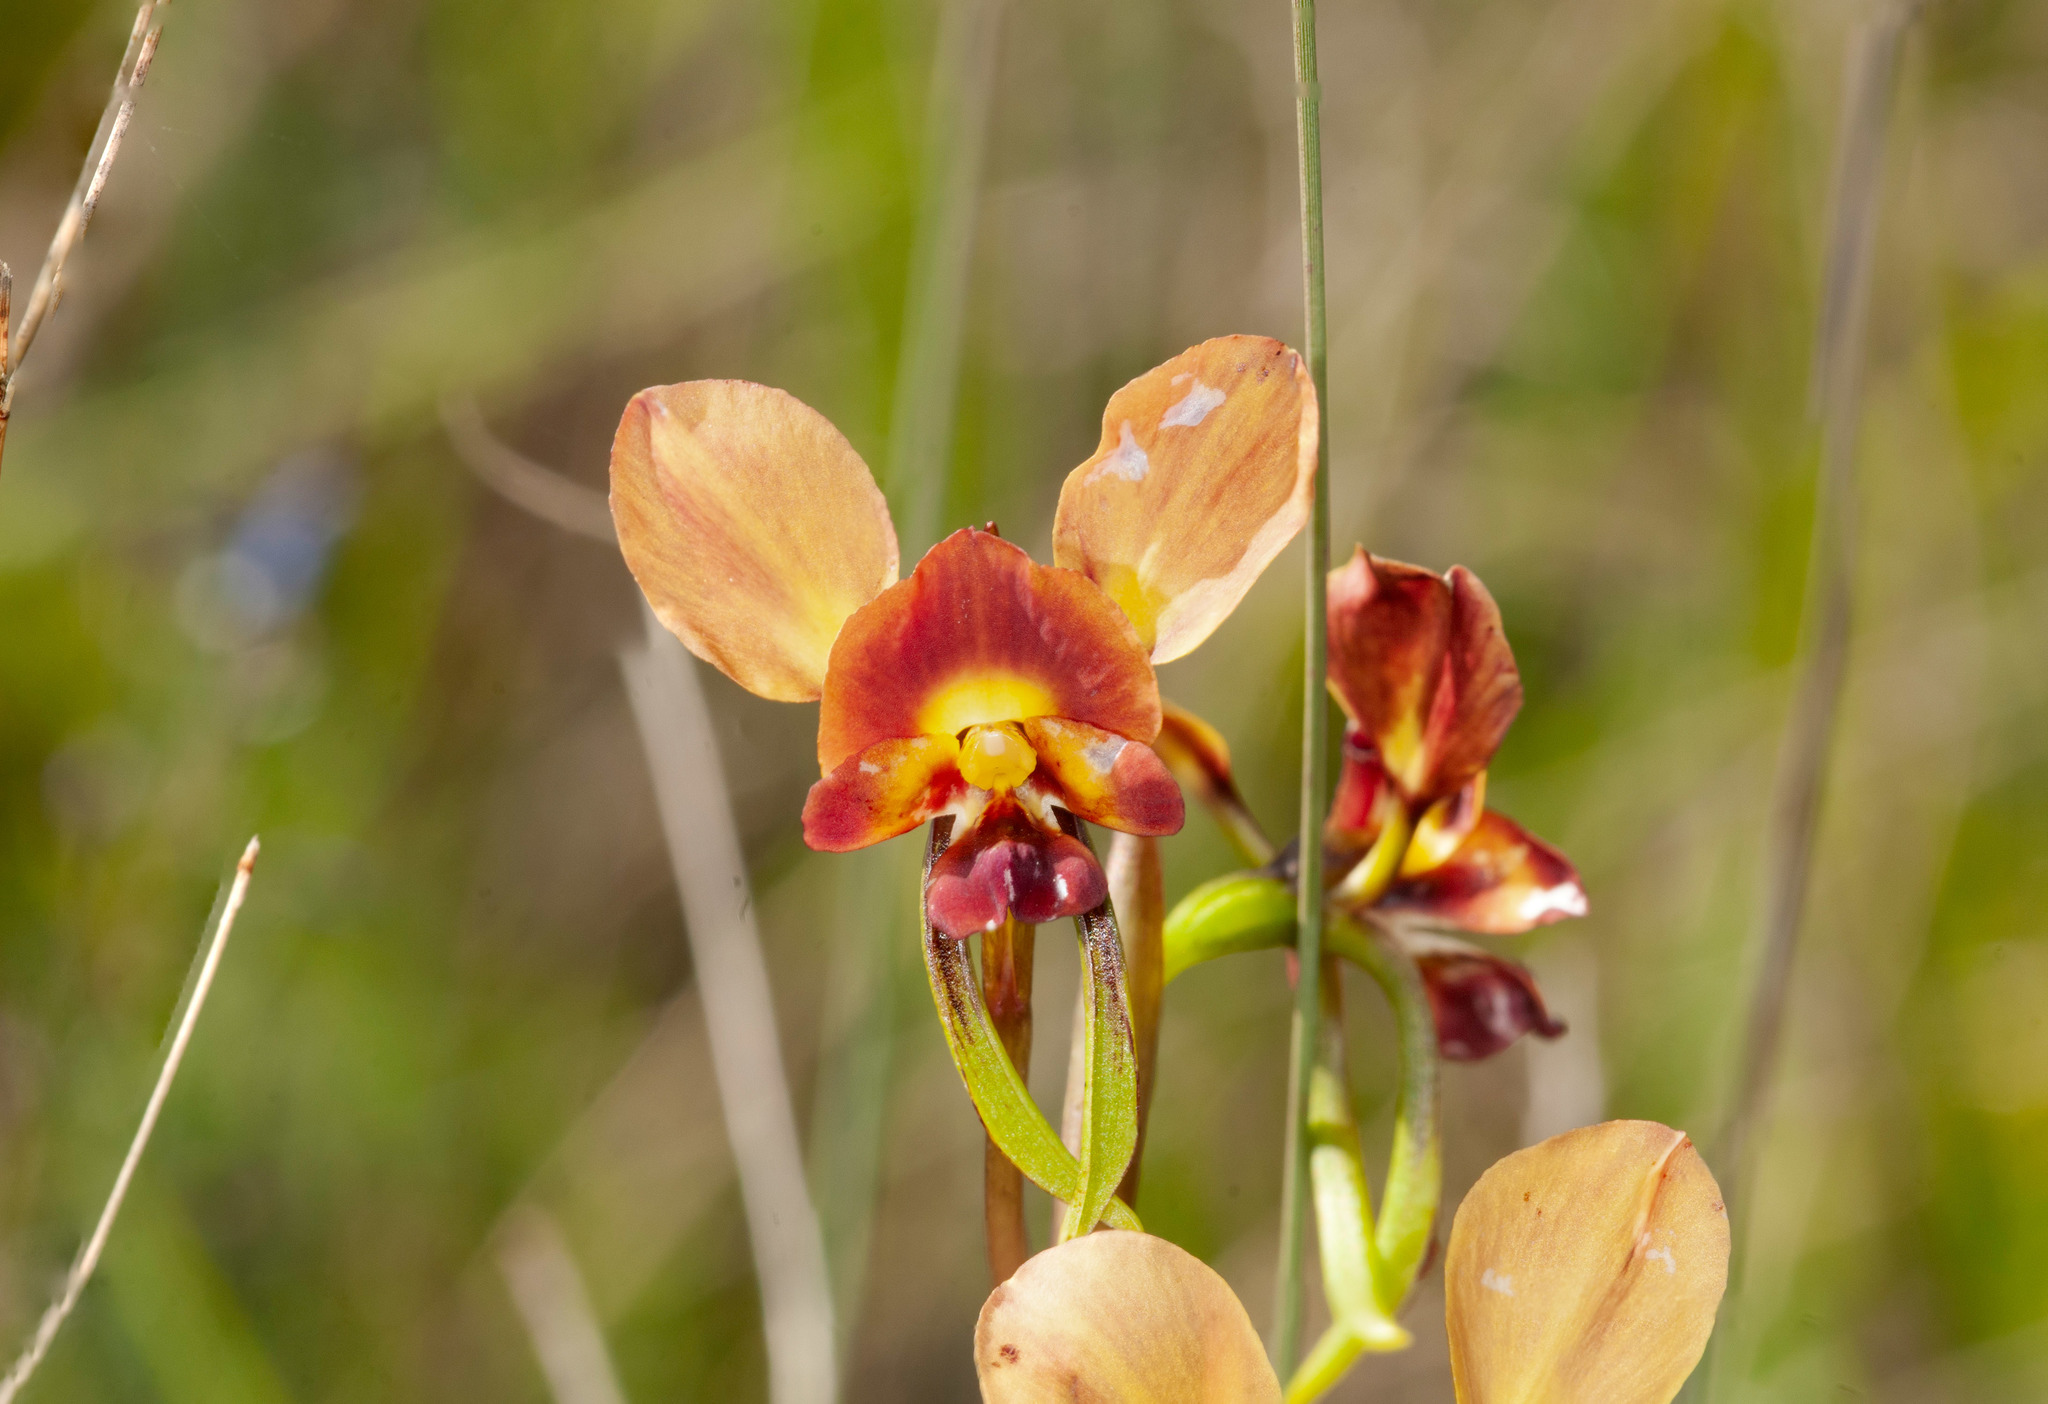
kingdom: Plantae
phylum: Tracheophyta
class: Liliopsida
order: Asparagales
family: Orchidaceae
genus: Diuris
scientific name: Diuris orientis
